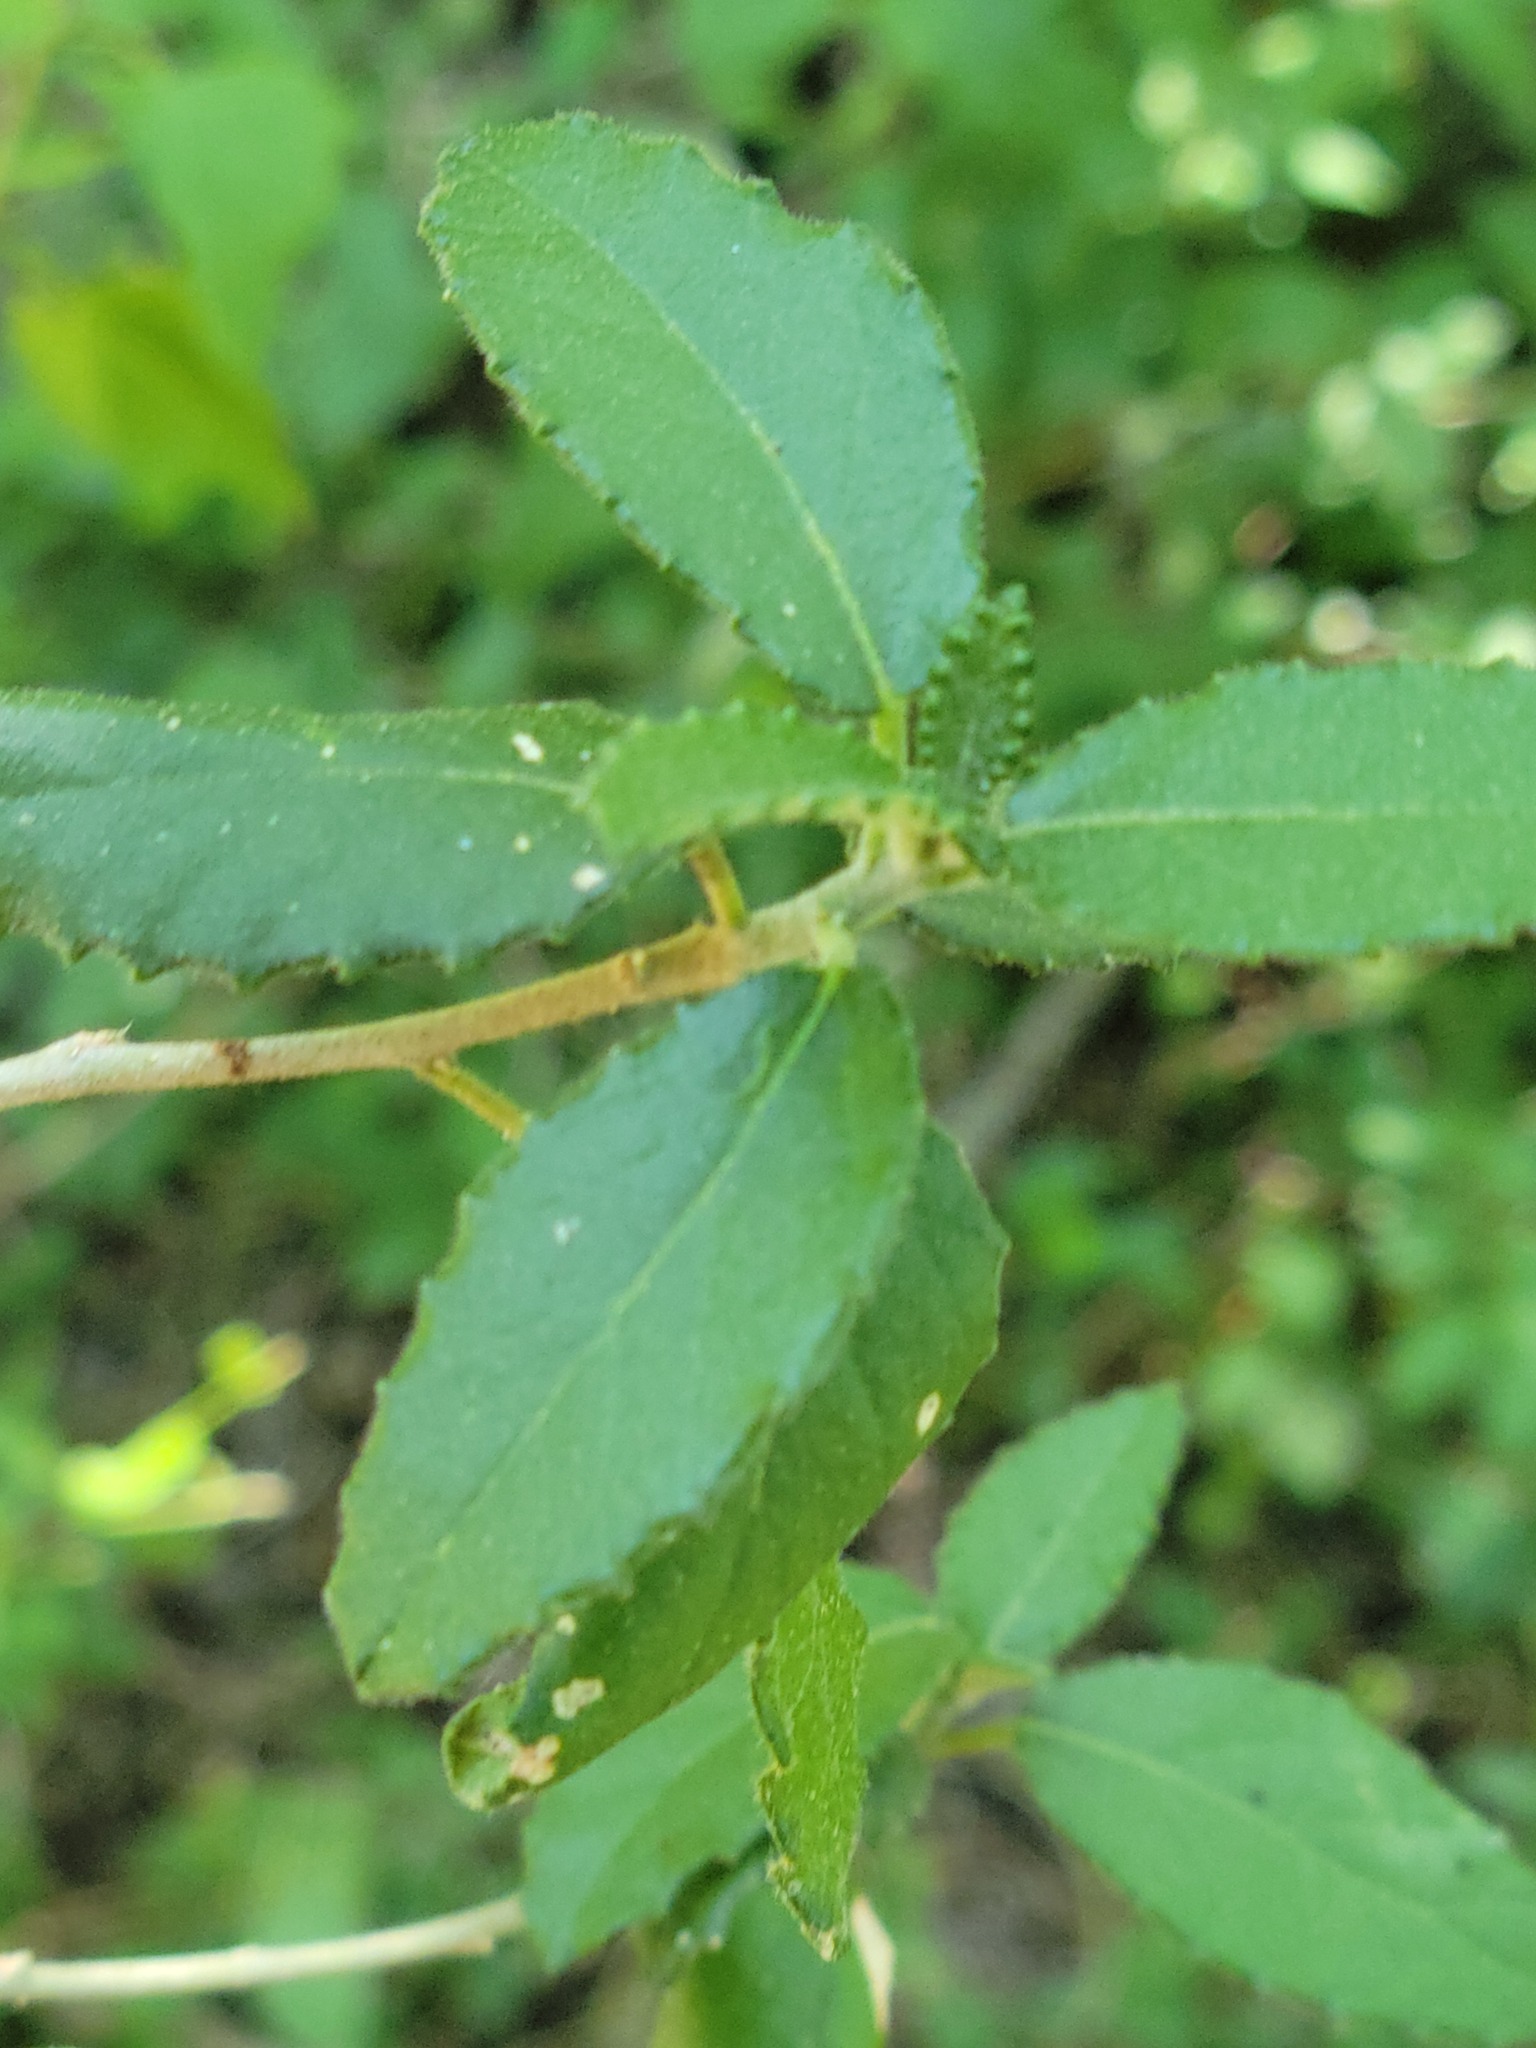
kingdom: Plantae
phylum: Tracheophyta
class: Magnoliopsida
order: Malpighiales
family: Euphorbiaceae
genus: Bernardia
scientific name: Bernardia myricifolia
